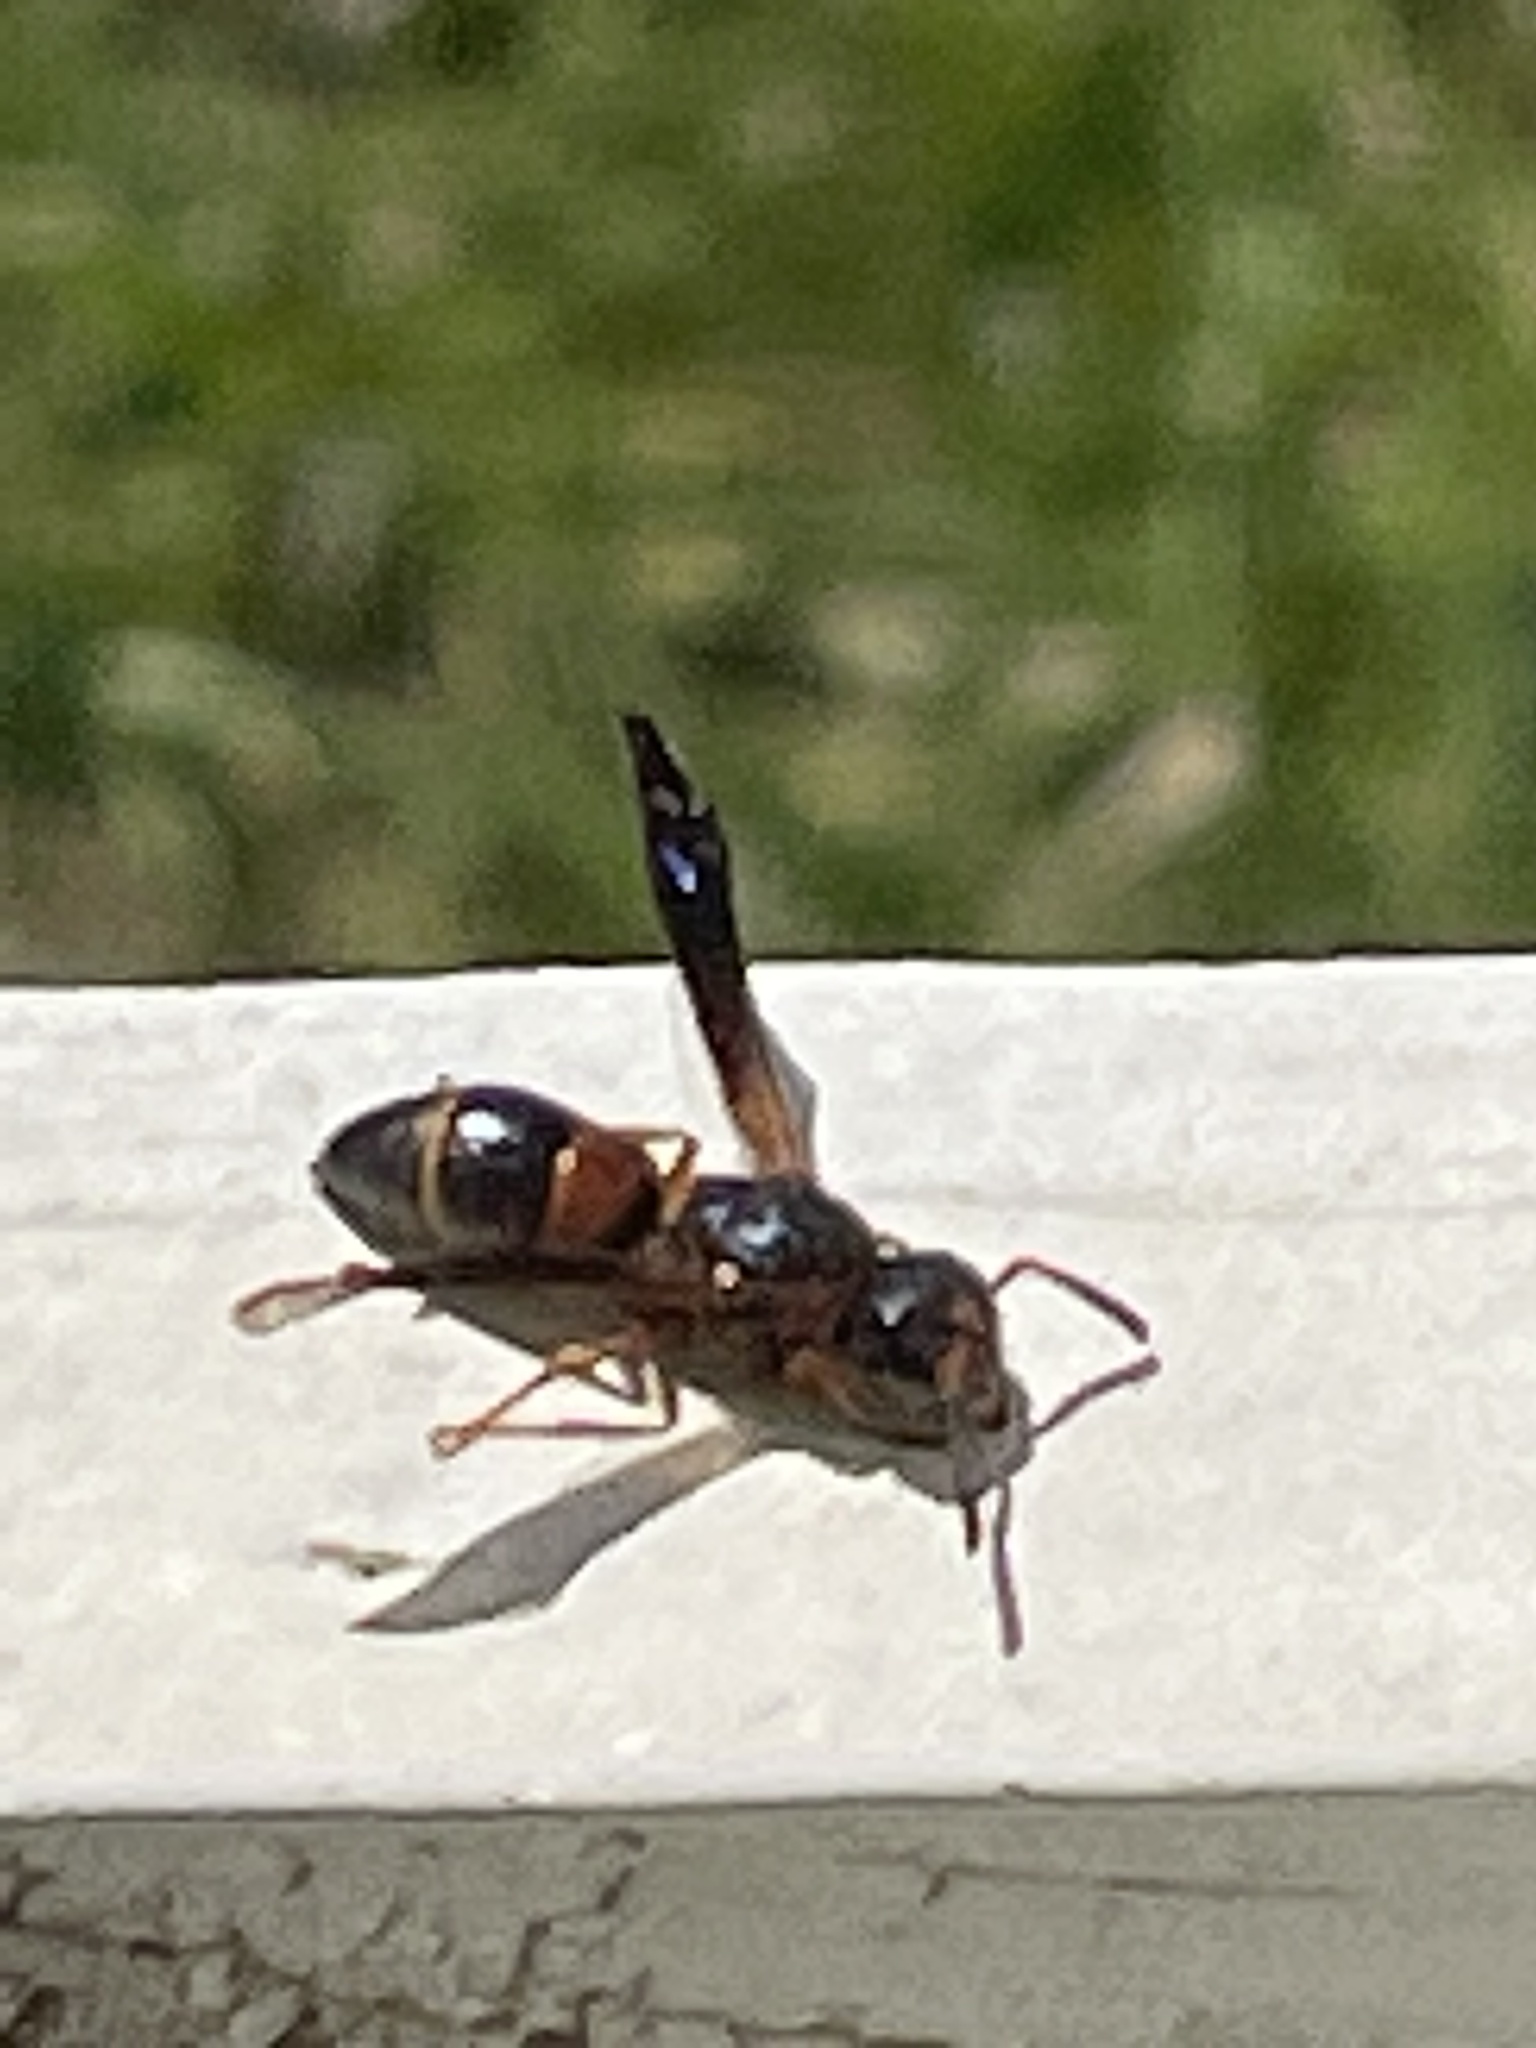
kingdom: Animalia
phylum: Arthropoda
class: Insecta
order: Hymenoptera
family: Eumenidae
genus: Parancistrocerus
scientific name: Parancistrocerus histrio
